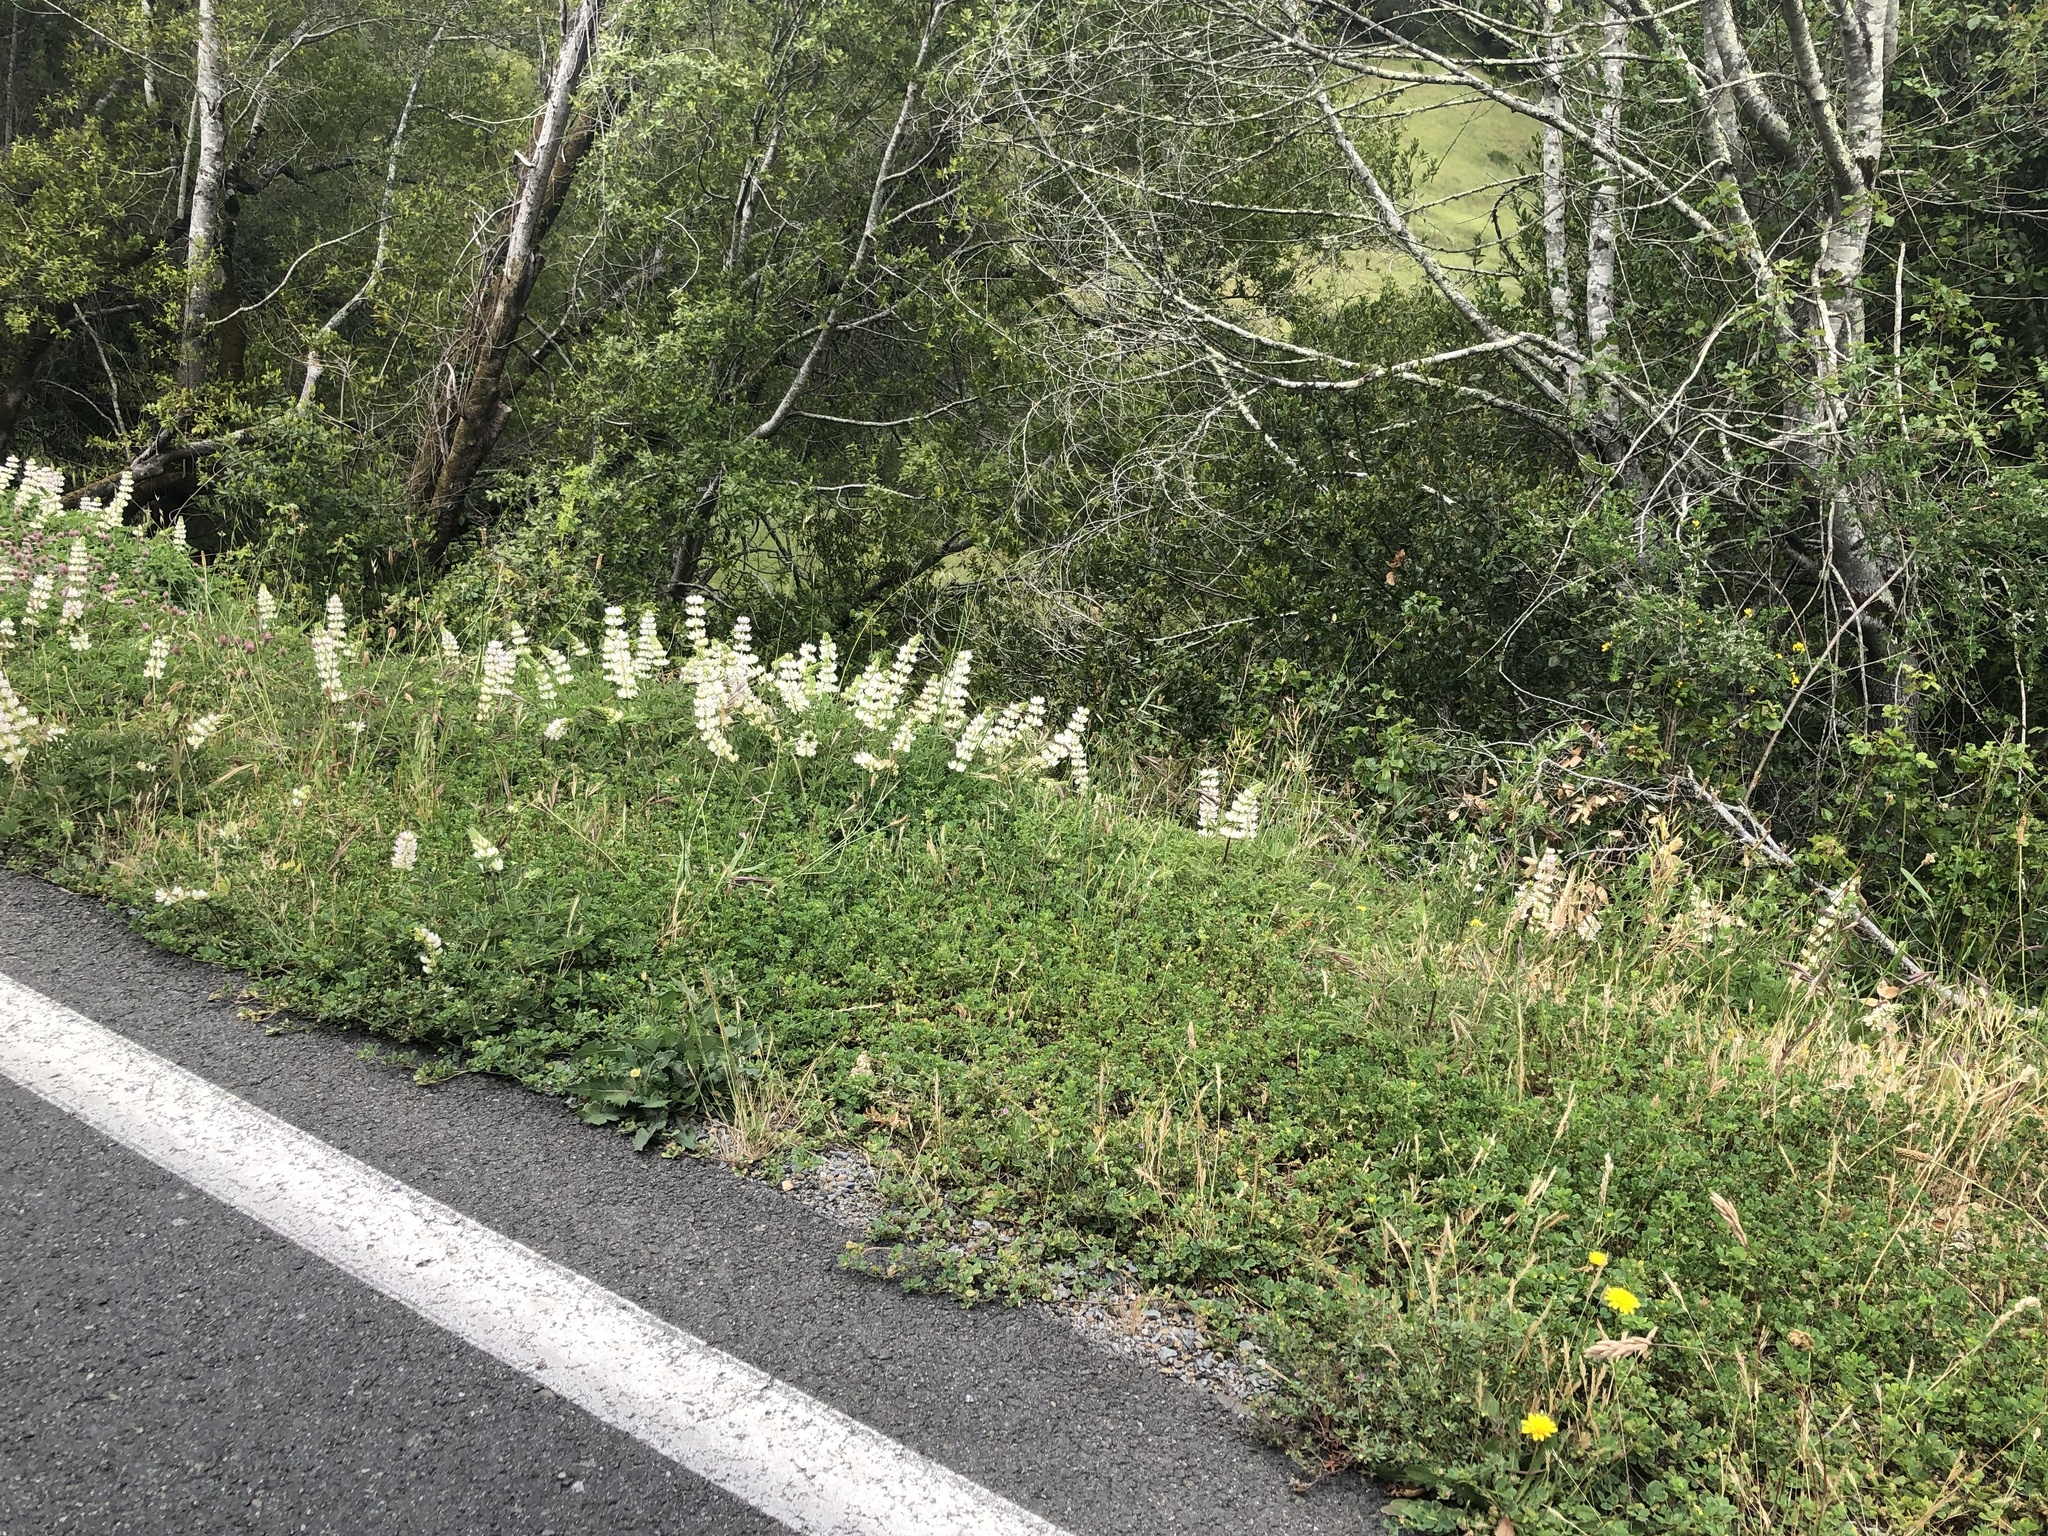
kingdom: Plantae
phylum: Tracheophyta
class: Magnoliopsida
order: Fabales
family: Fabaceae
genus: Lupinus
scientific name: Lupinus microcarpus
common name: Chick lupine
